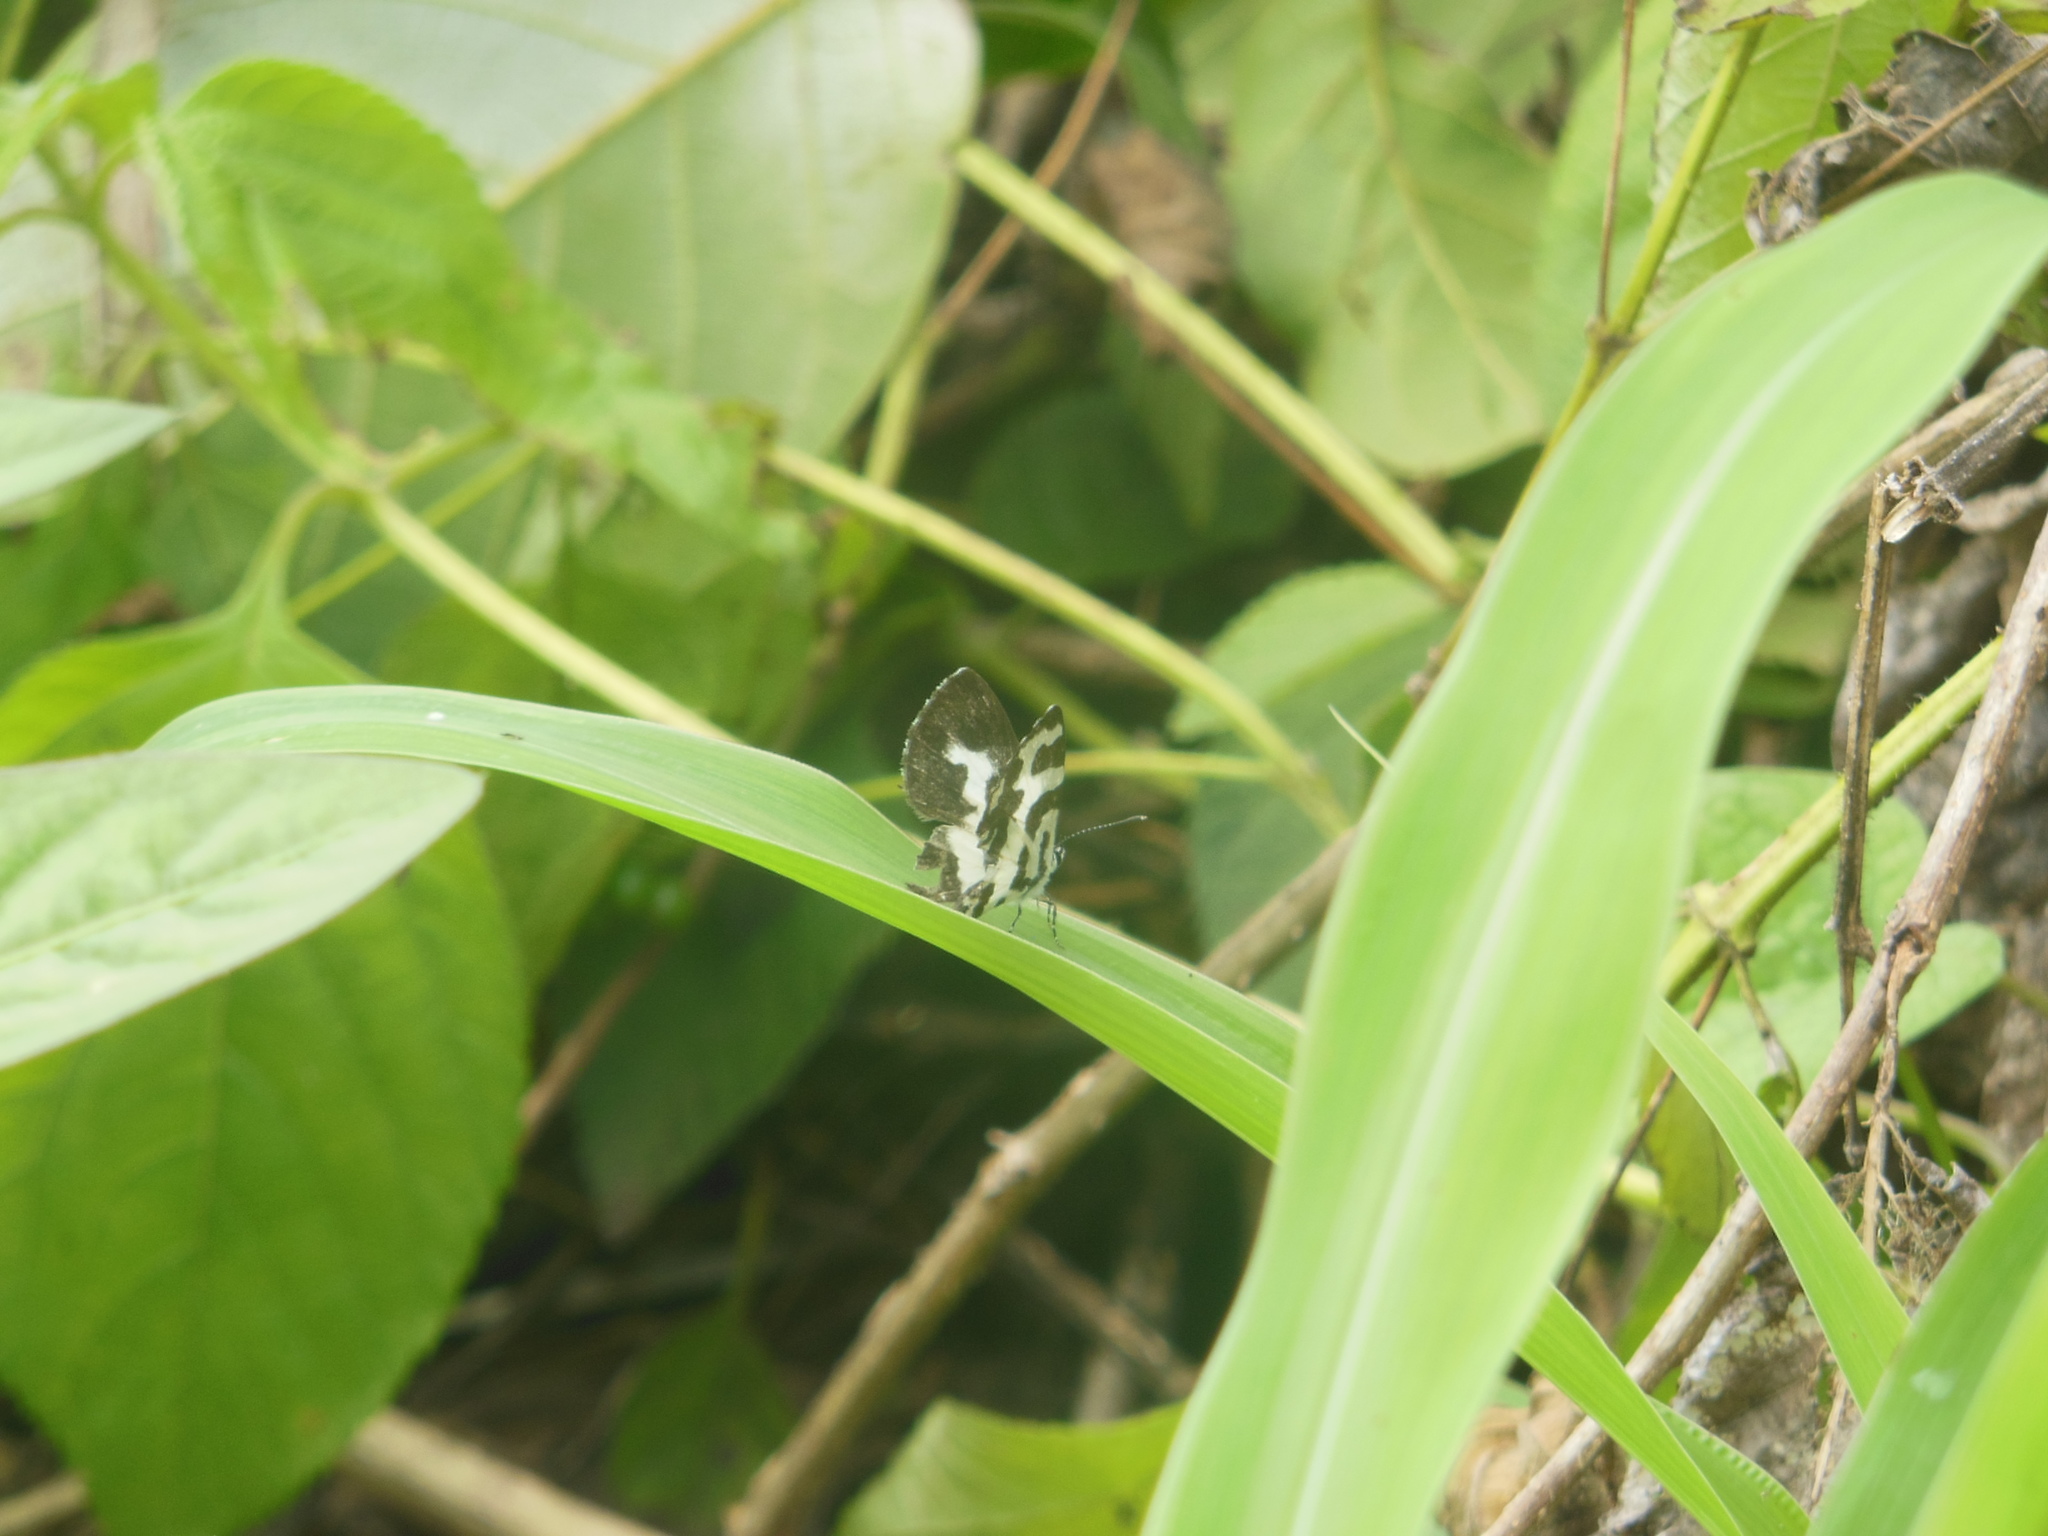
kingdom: Animalia
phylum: Arthropoda
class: Insecta
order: Lepidoptera
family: Lycaenidae
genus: Caleta
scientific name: Caleta decidia
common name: Angled pierrot
